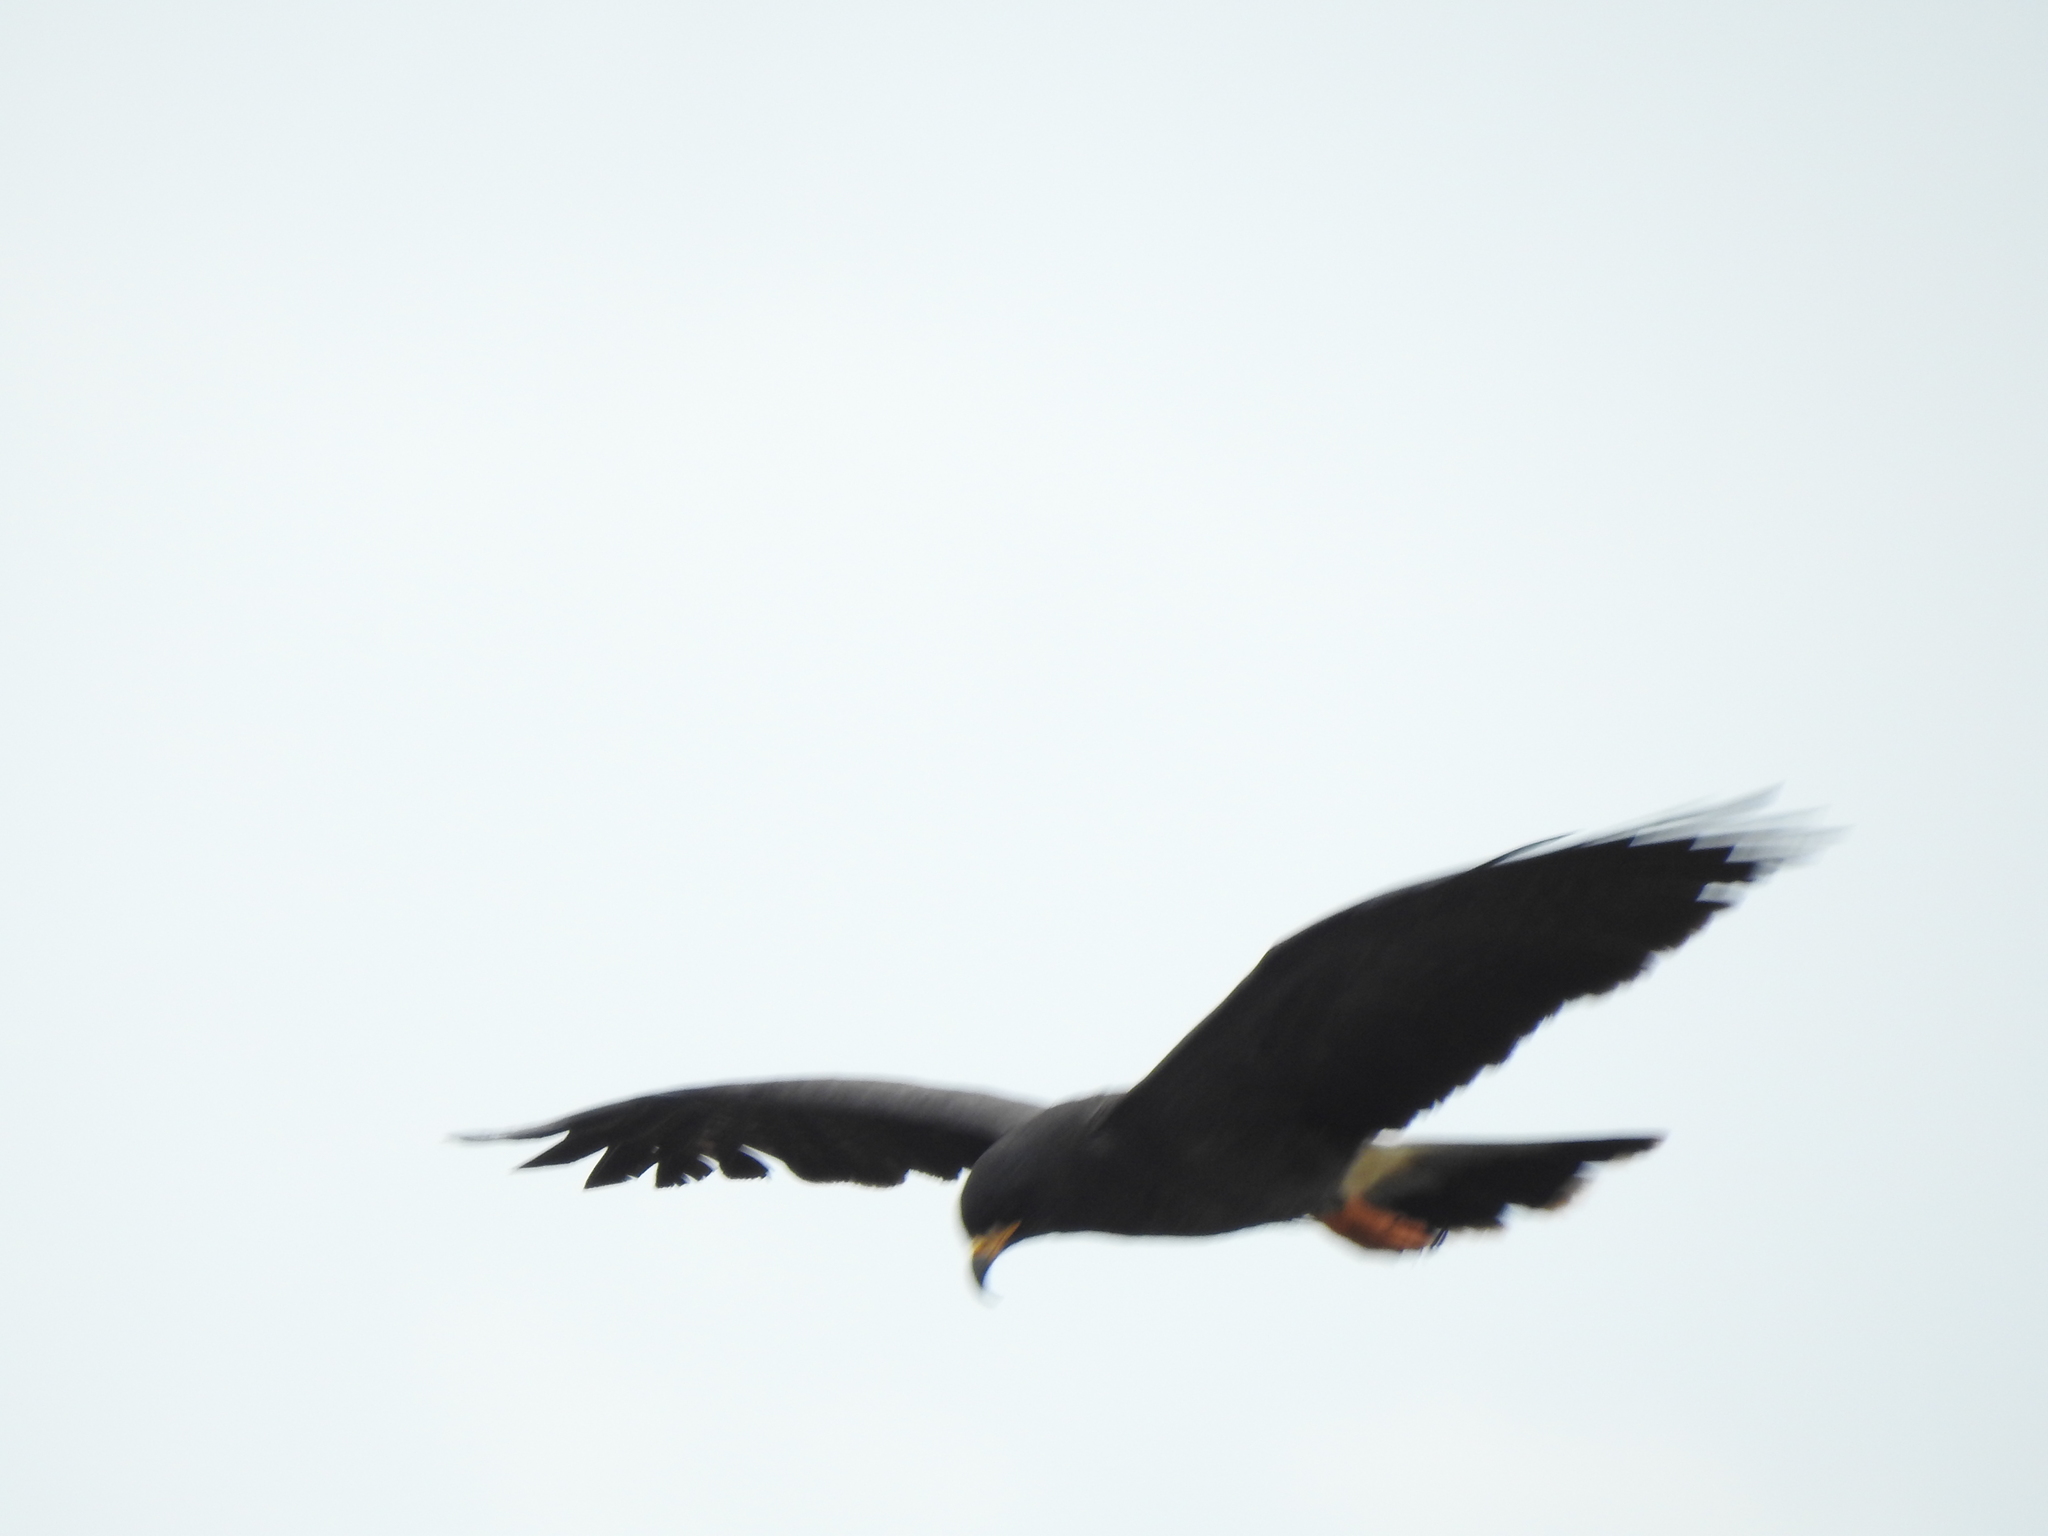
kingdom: Animalia
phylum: Chordata
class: Aves
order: Accipitriformes
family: Accipitridae
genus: Rostrhamus
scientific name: Rostrhamus sociabilis
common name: Snail kite
